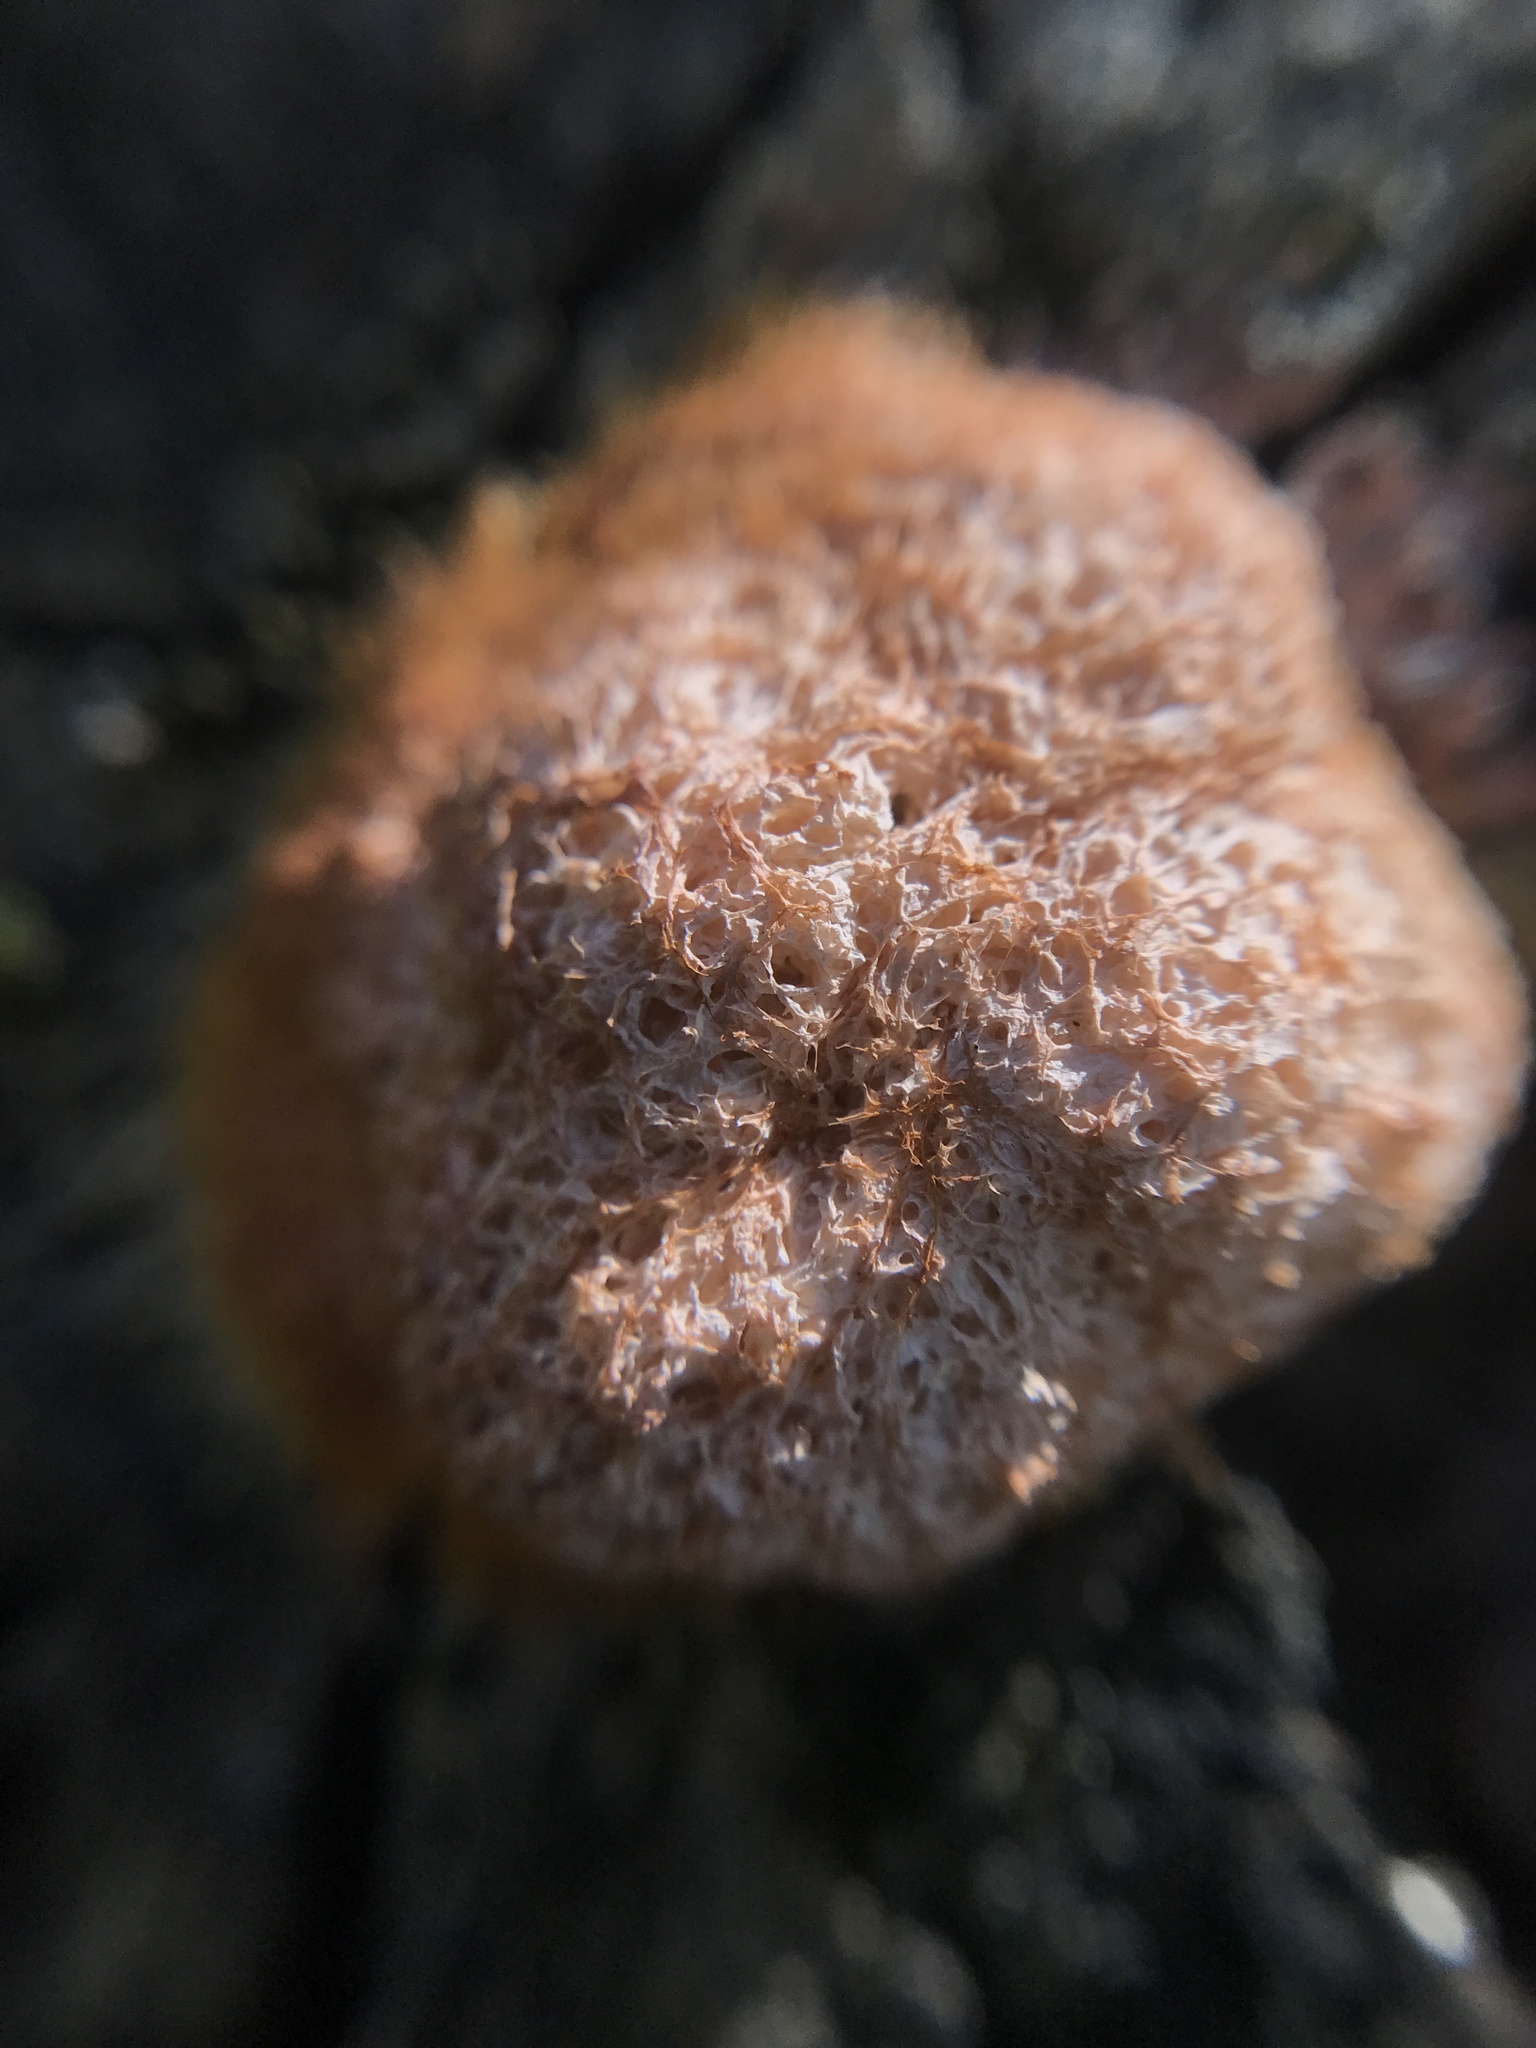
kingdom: Protozoa
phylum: Mycetozoa
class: Myxomycetes
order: Physarales
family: Physaraceae
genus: Fuligo
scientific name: Fuligo septica
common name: Dog vomit slime mold
